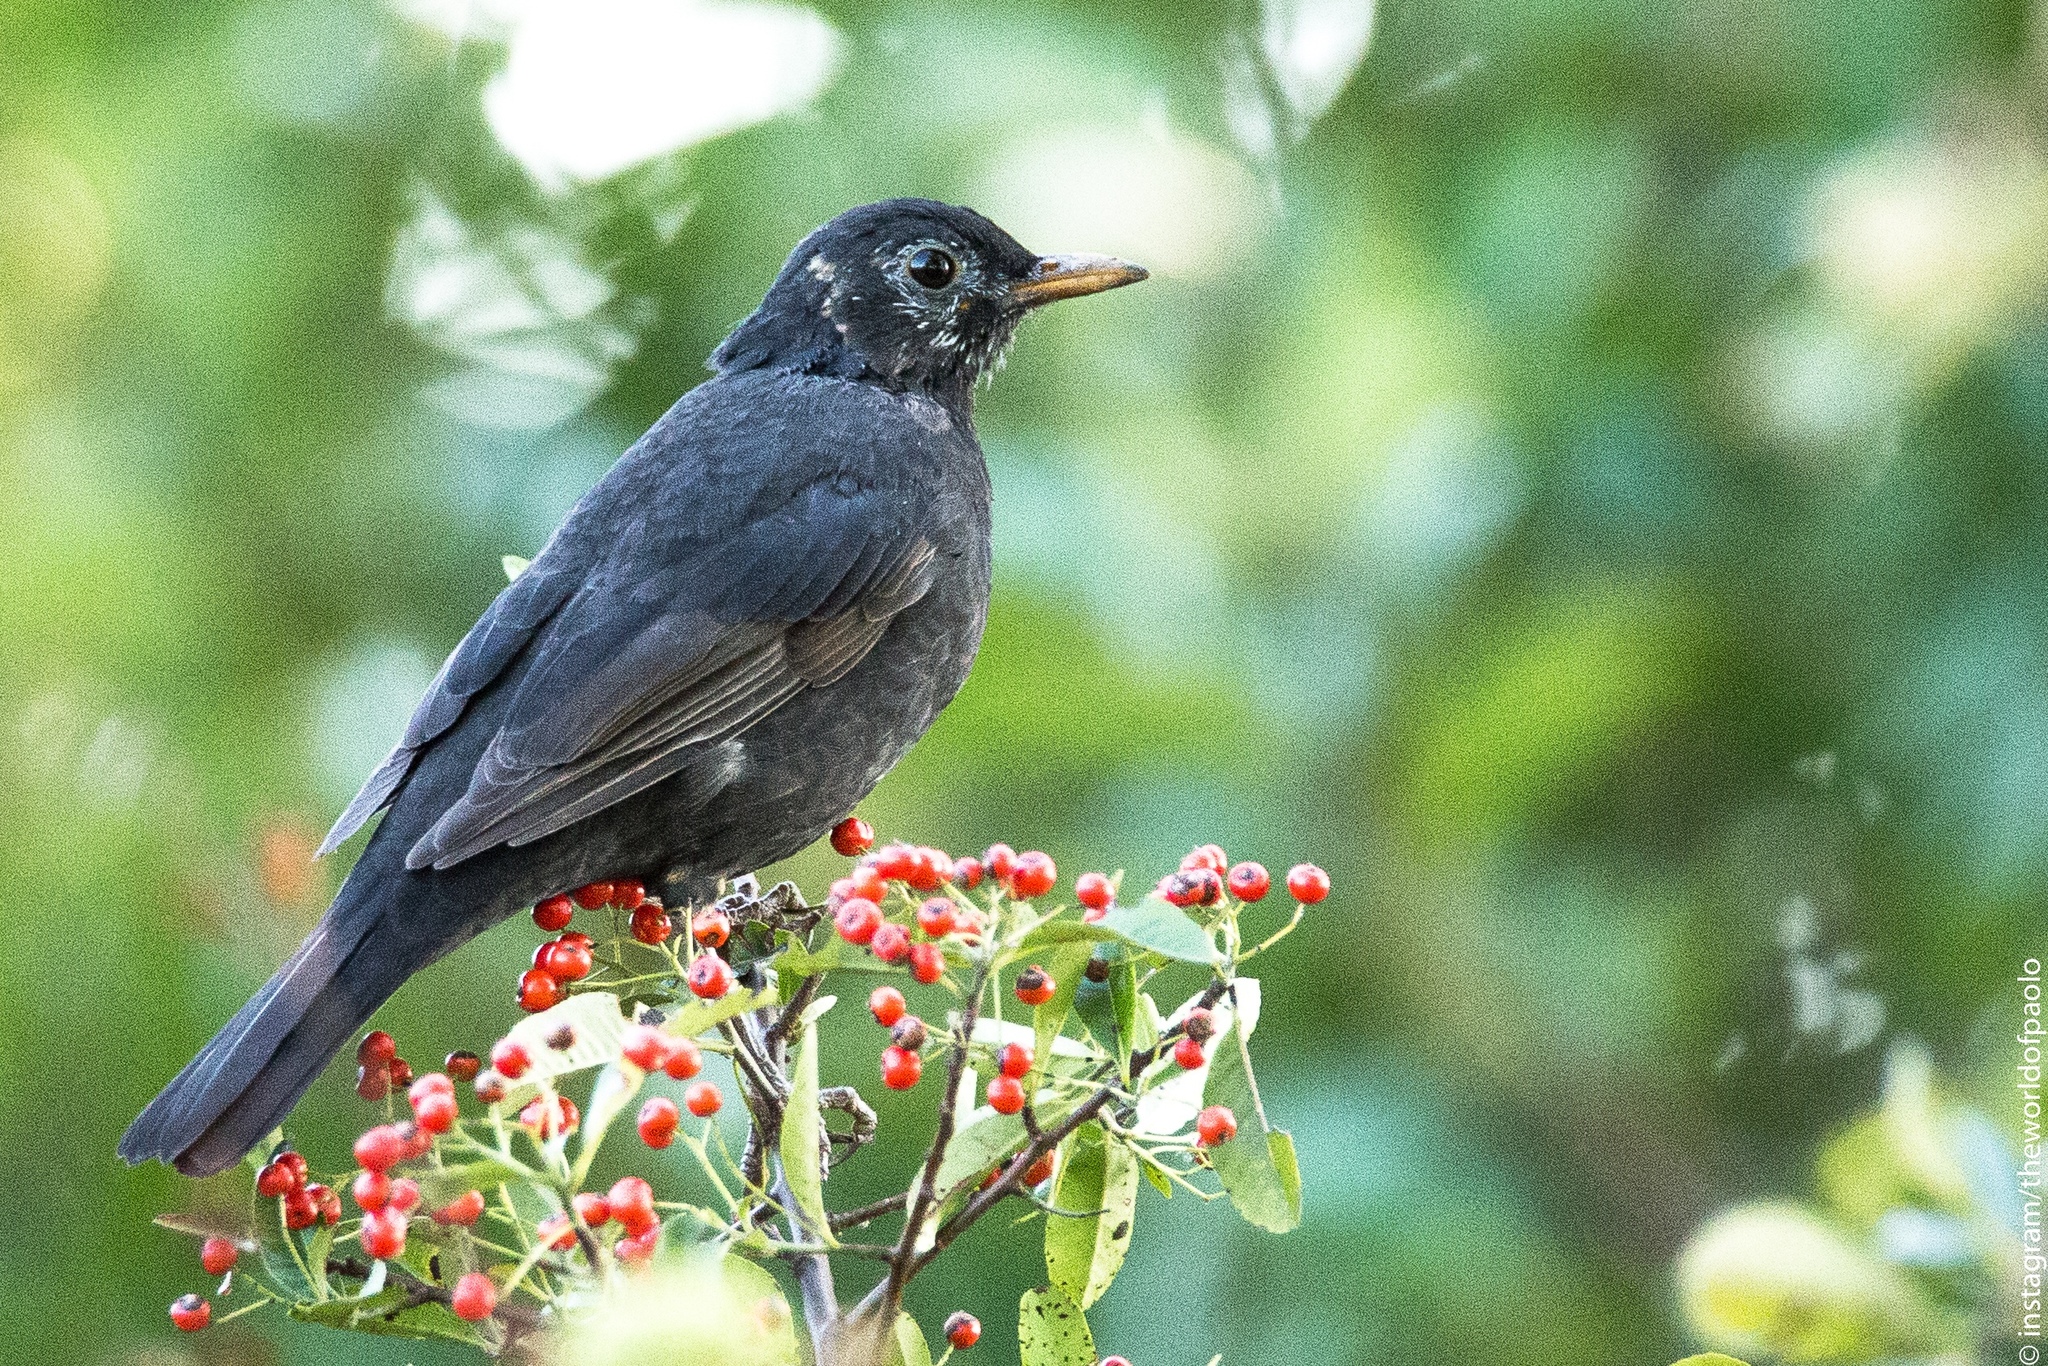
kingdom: Animalia
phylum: Chordata
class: Aves
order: Passeriformes
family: Turdidae
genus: Turdus
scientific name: Turdus merula
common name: Common blackbird
